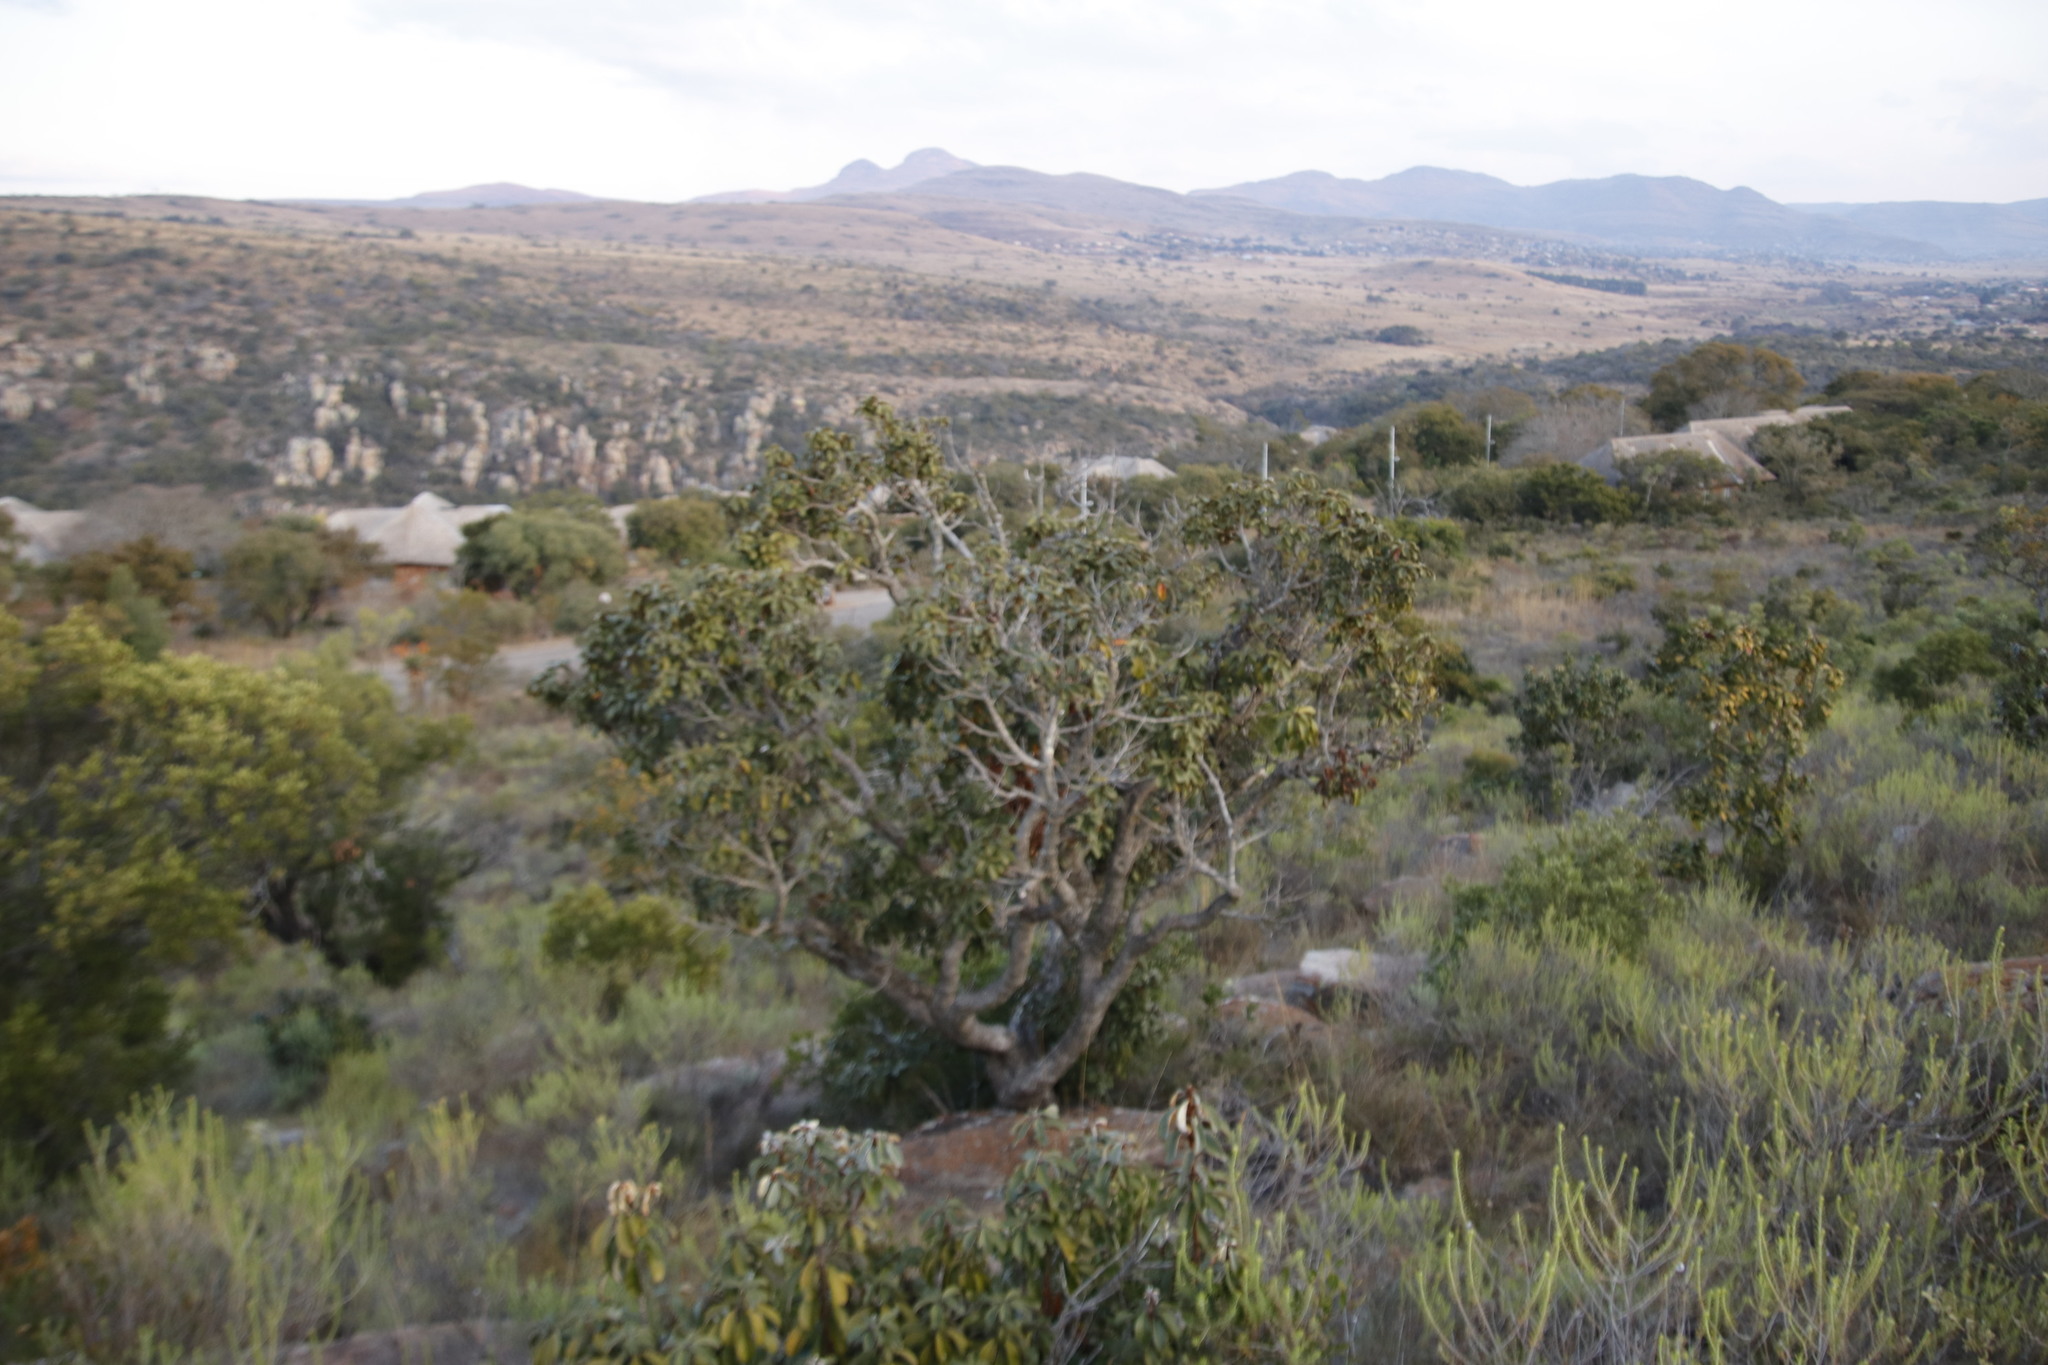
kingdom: Plantae
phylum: Tracheophyta
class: Magnoliopsida
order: Ericales
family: Sapotaceae
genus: Englerophytum
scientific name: Englerophytum magalismontanum
